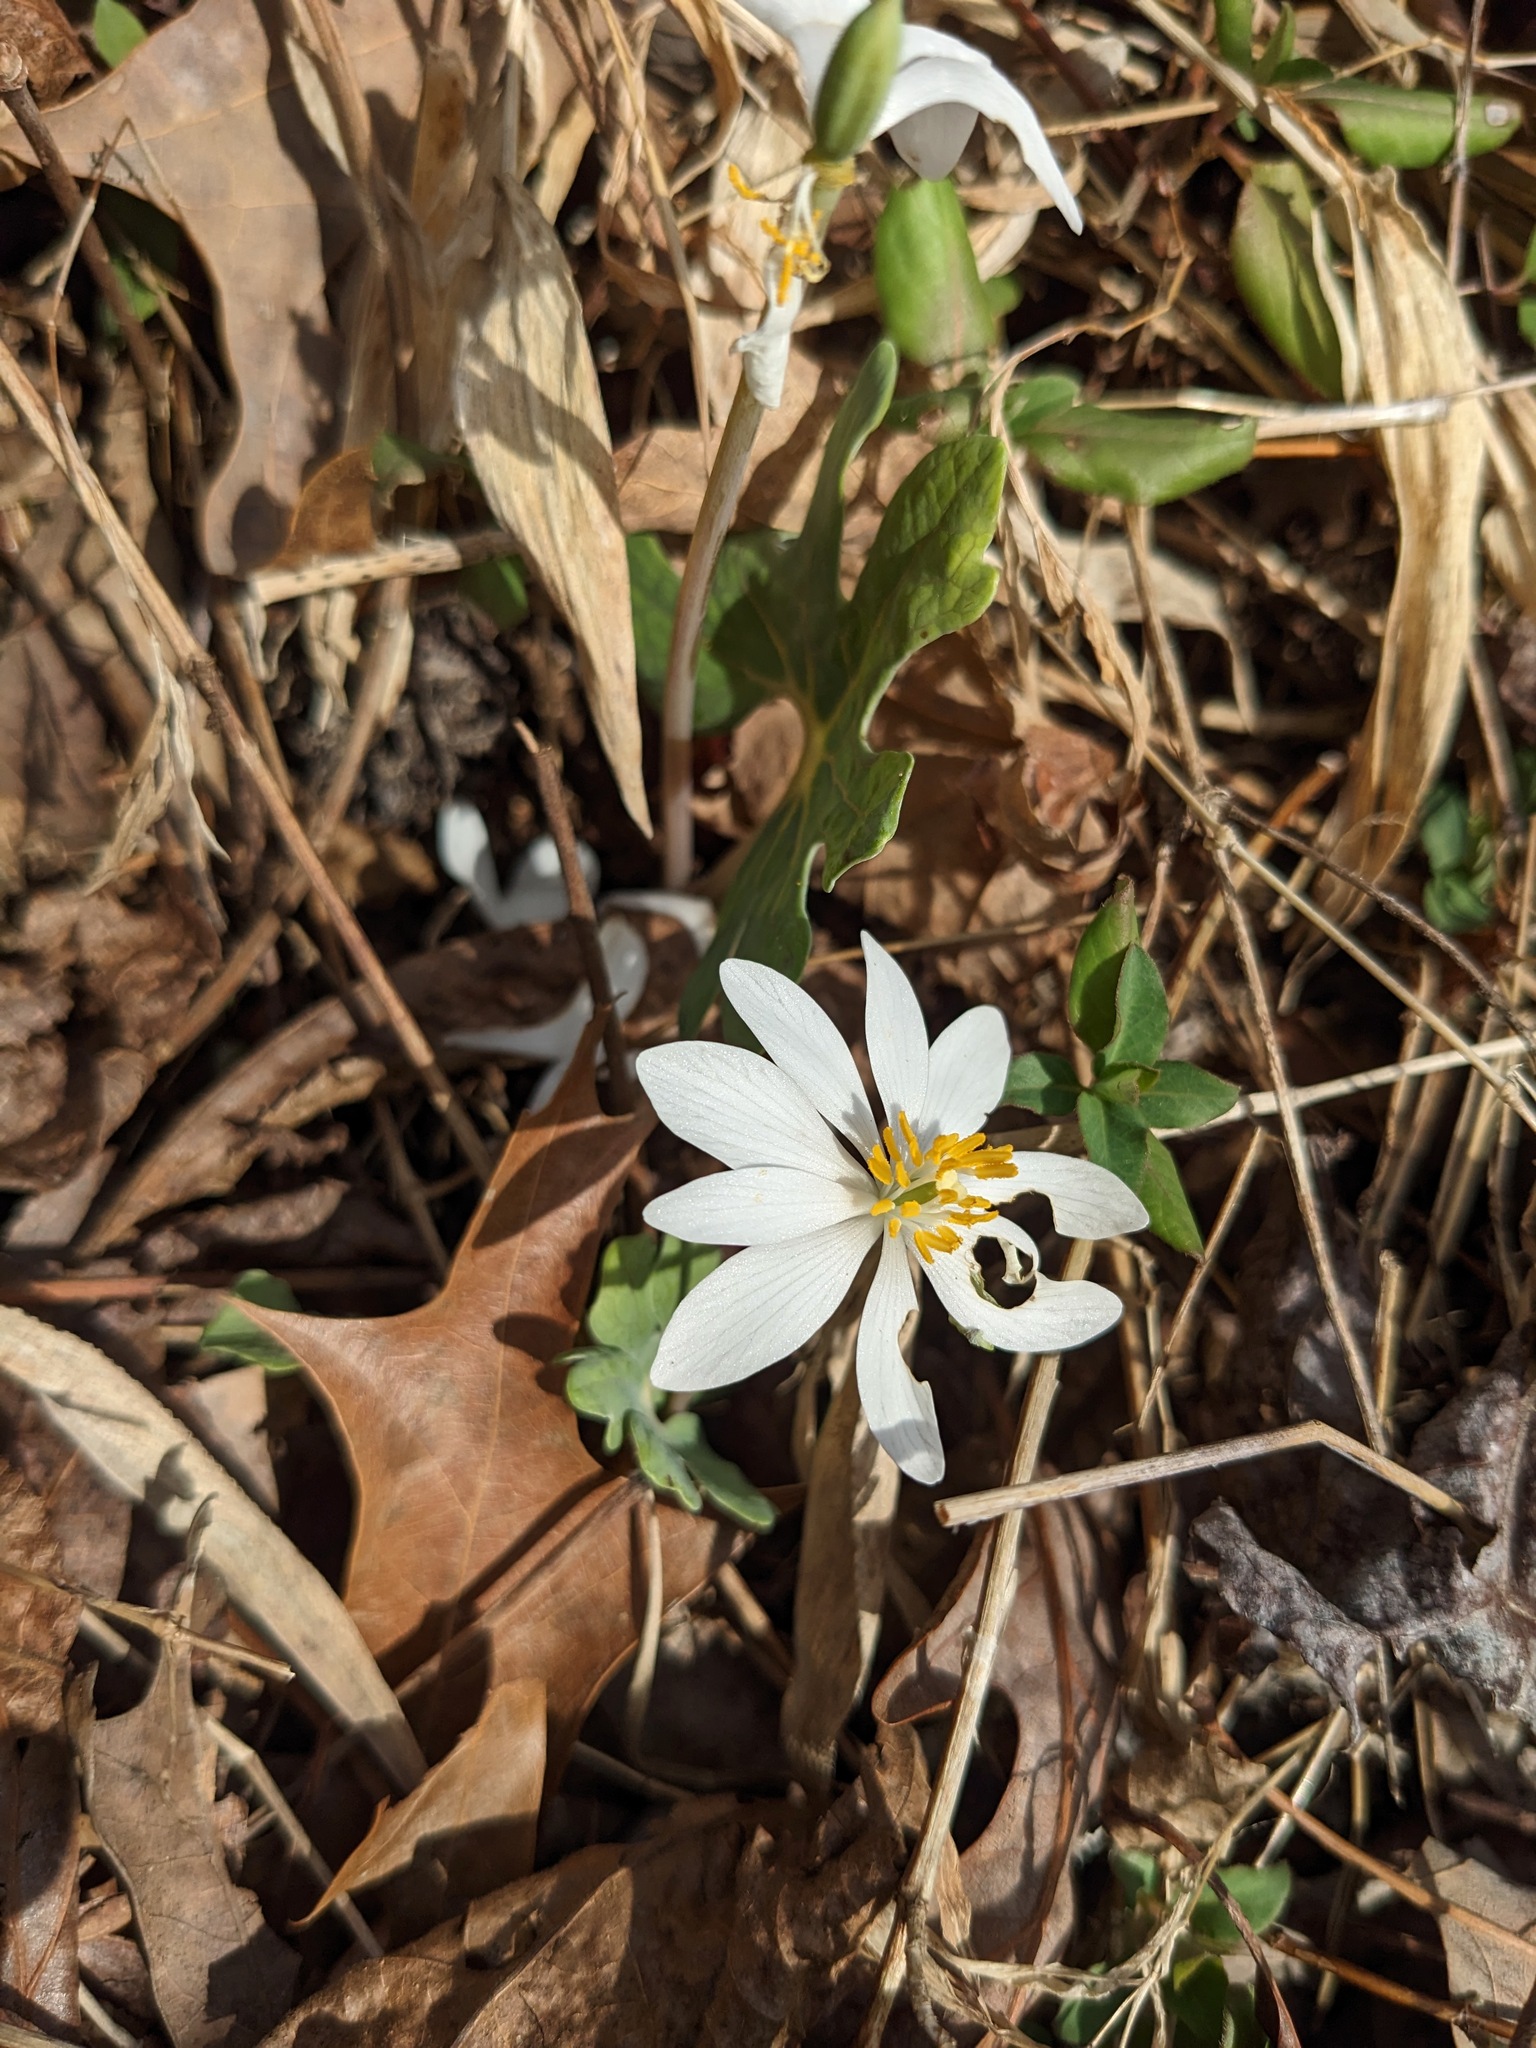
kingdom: Plantae
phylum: Tracheophyta
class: Magnoliopsida
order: Ranunculales
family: Papaveraceae
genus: Sanguinaria
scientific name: Sanguinaria canadensis
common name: Bloodroot
